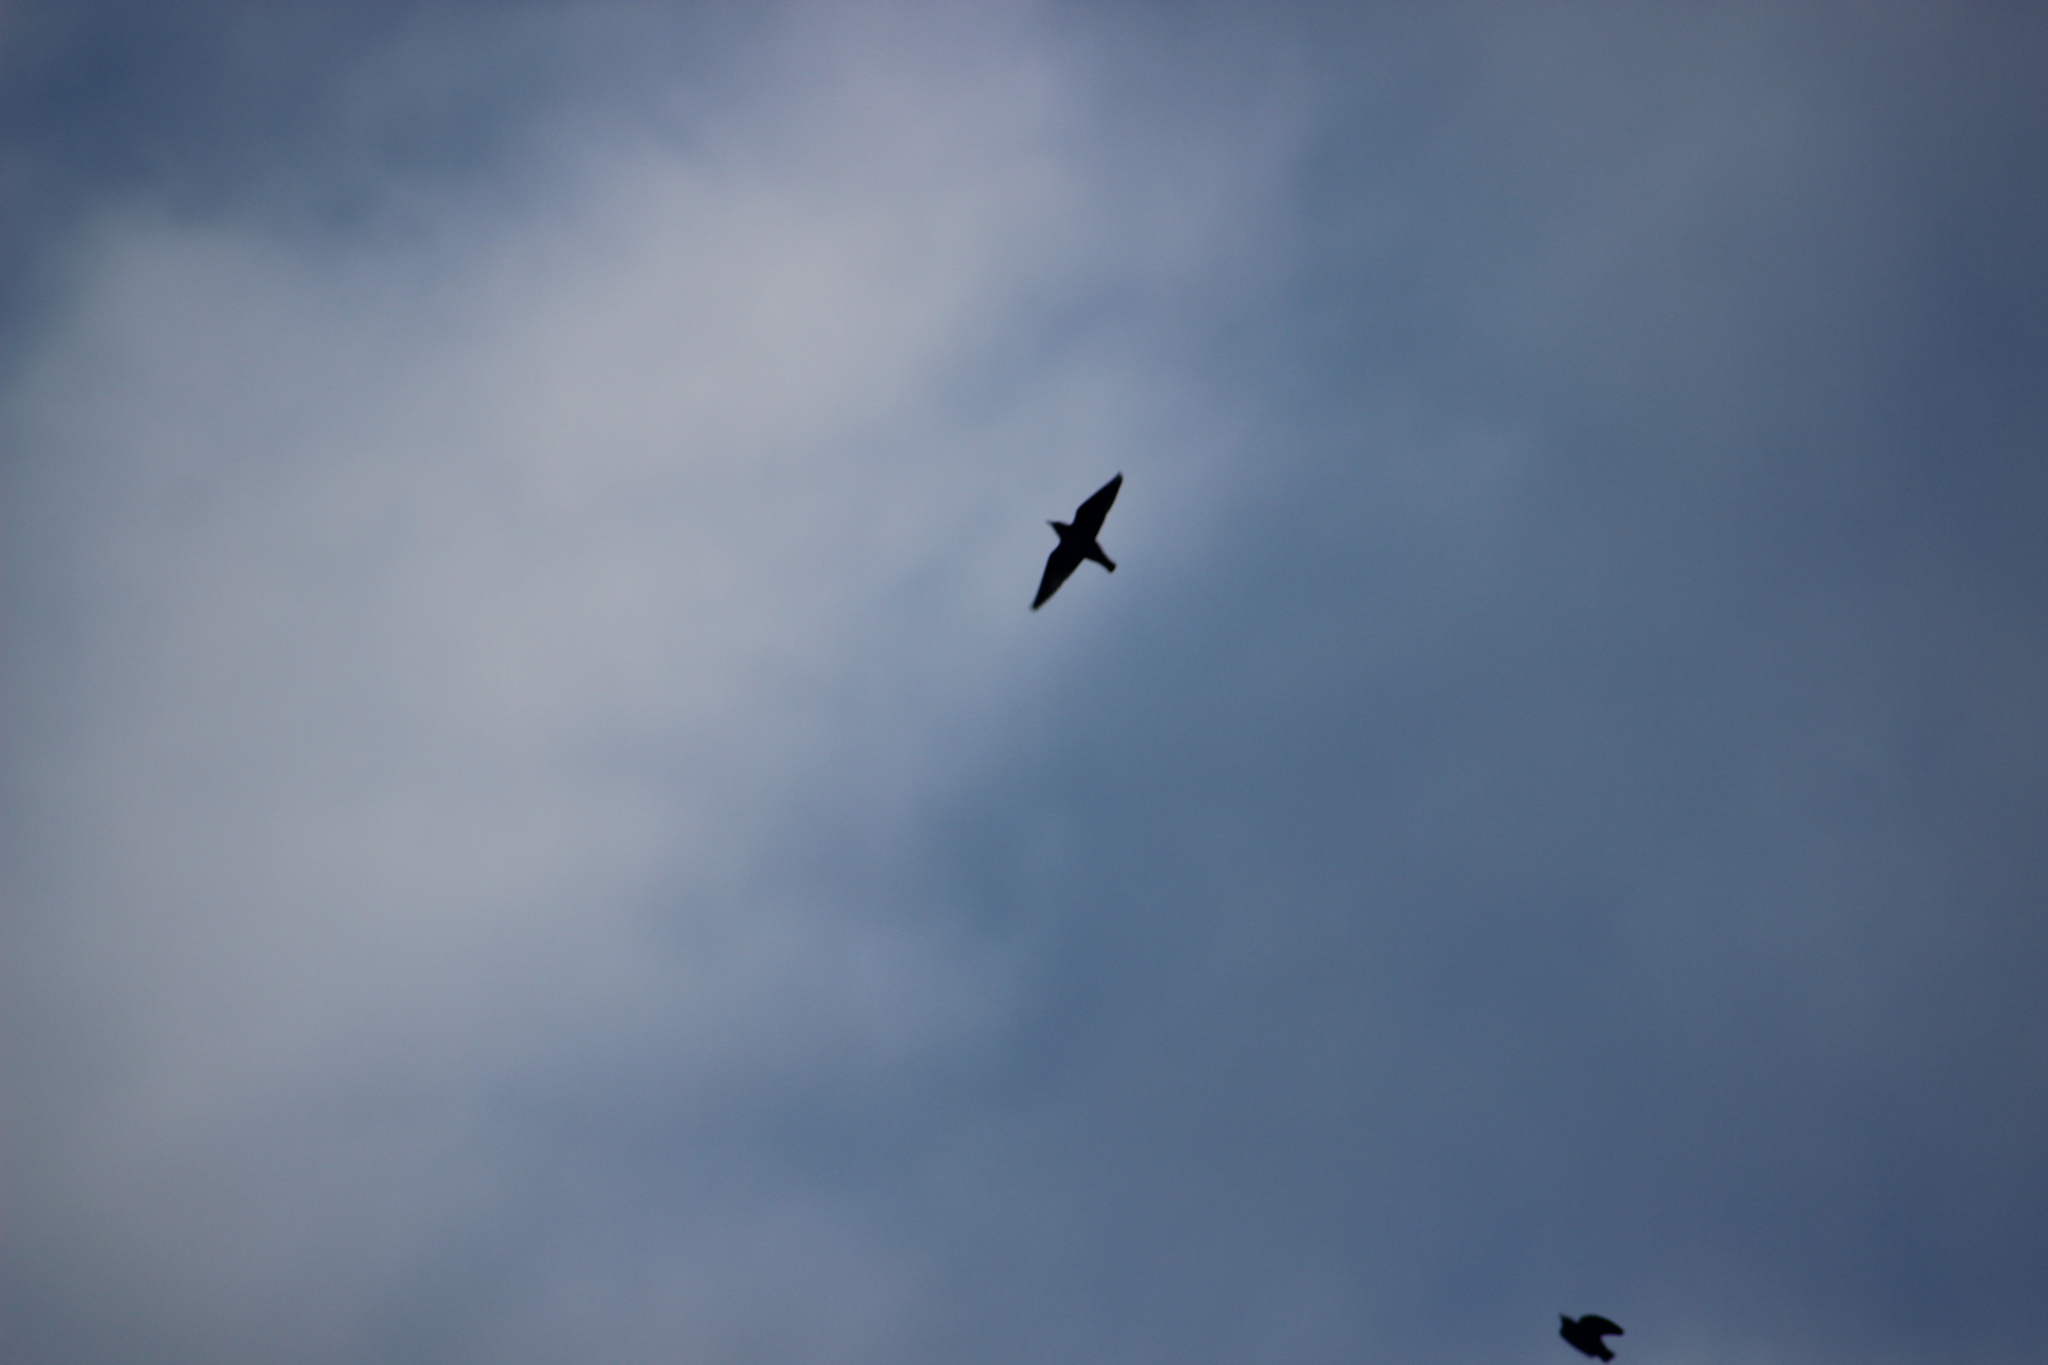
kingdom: Animalia
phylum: Chordata
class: Aves
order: Passeriformes
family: Sturnidae
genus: Sturnus
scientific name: Sturnus vulgaris
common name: Common starling
